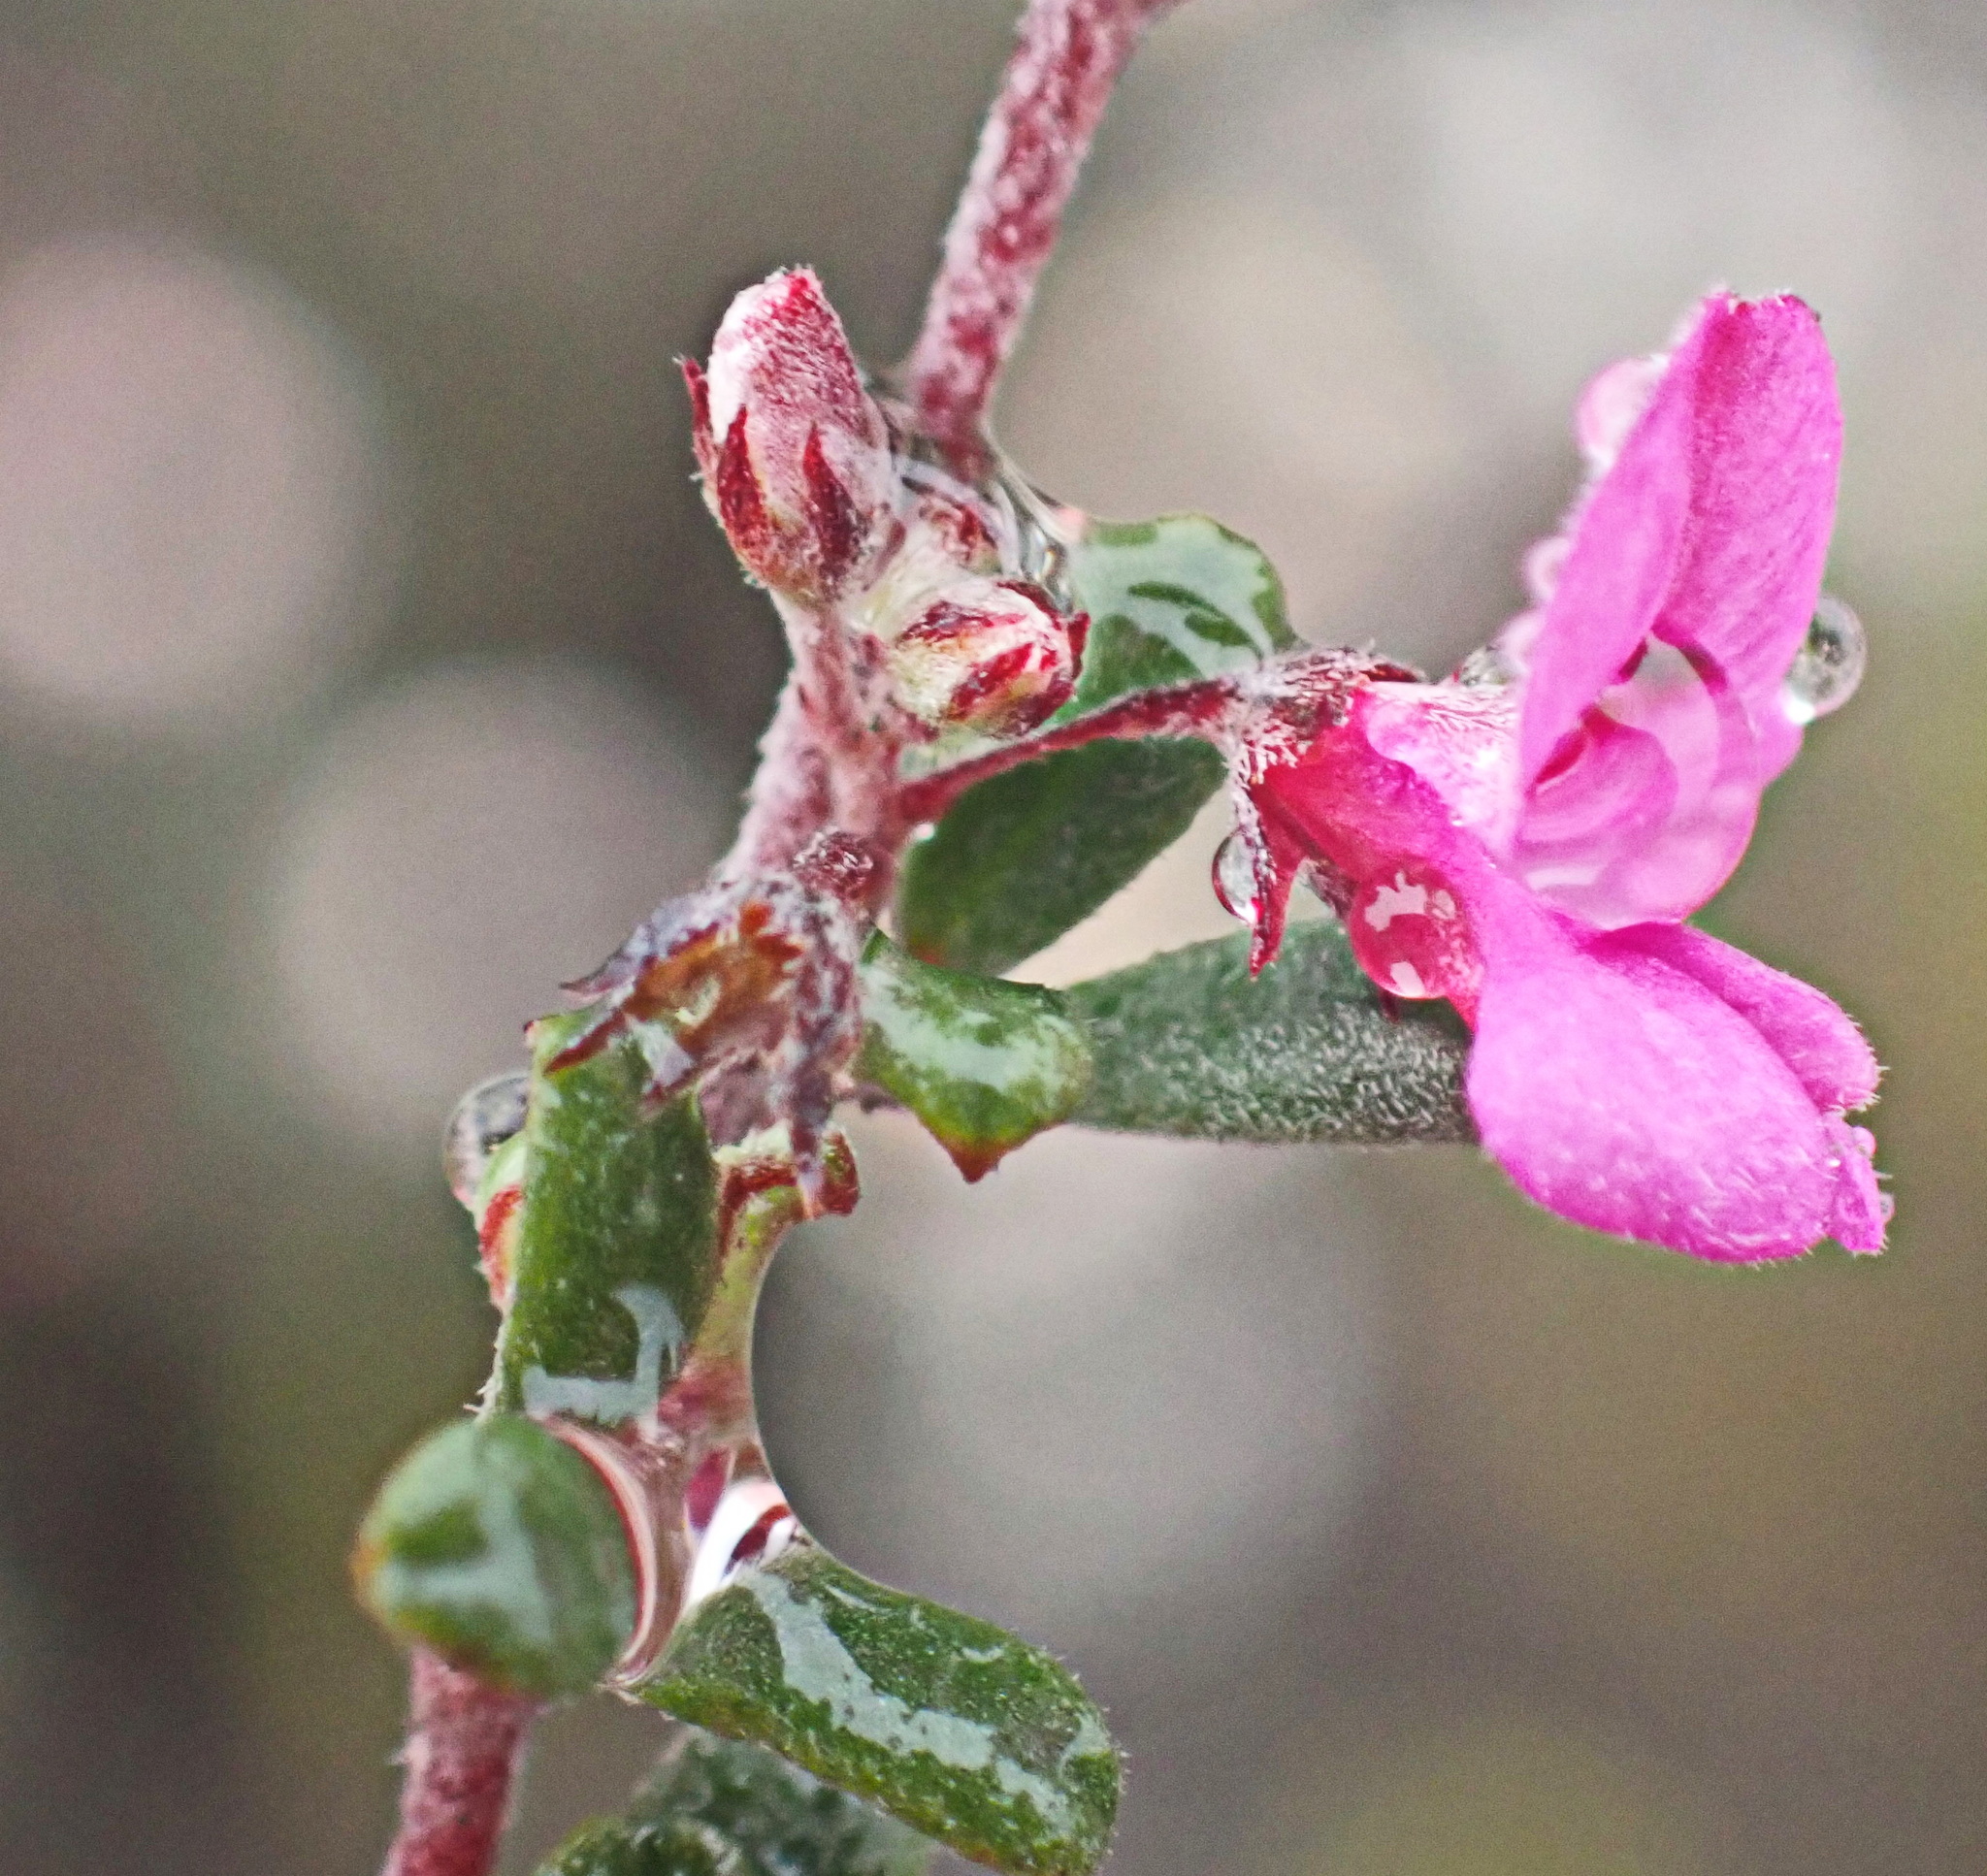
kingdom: Plantae
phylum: Tracheophyta
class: Magnoliopsida
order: Fabales
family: Fabaceae
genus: Indigofera
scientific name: Indigofera
